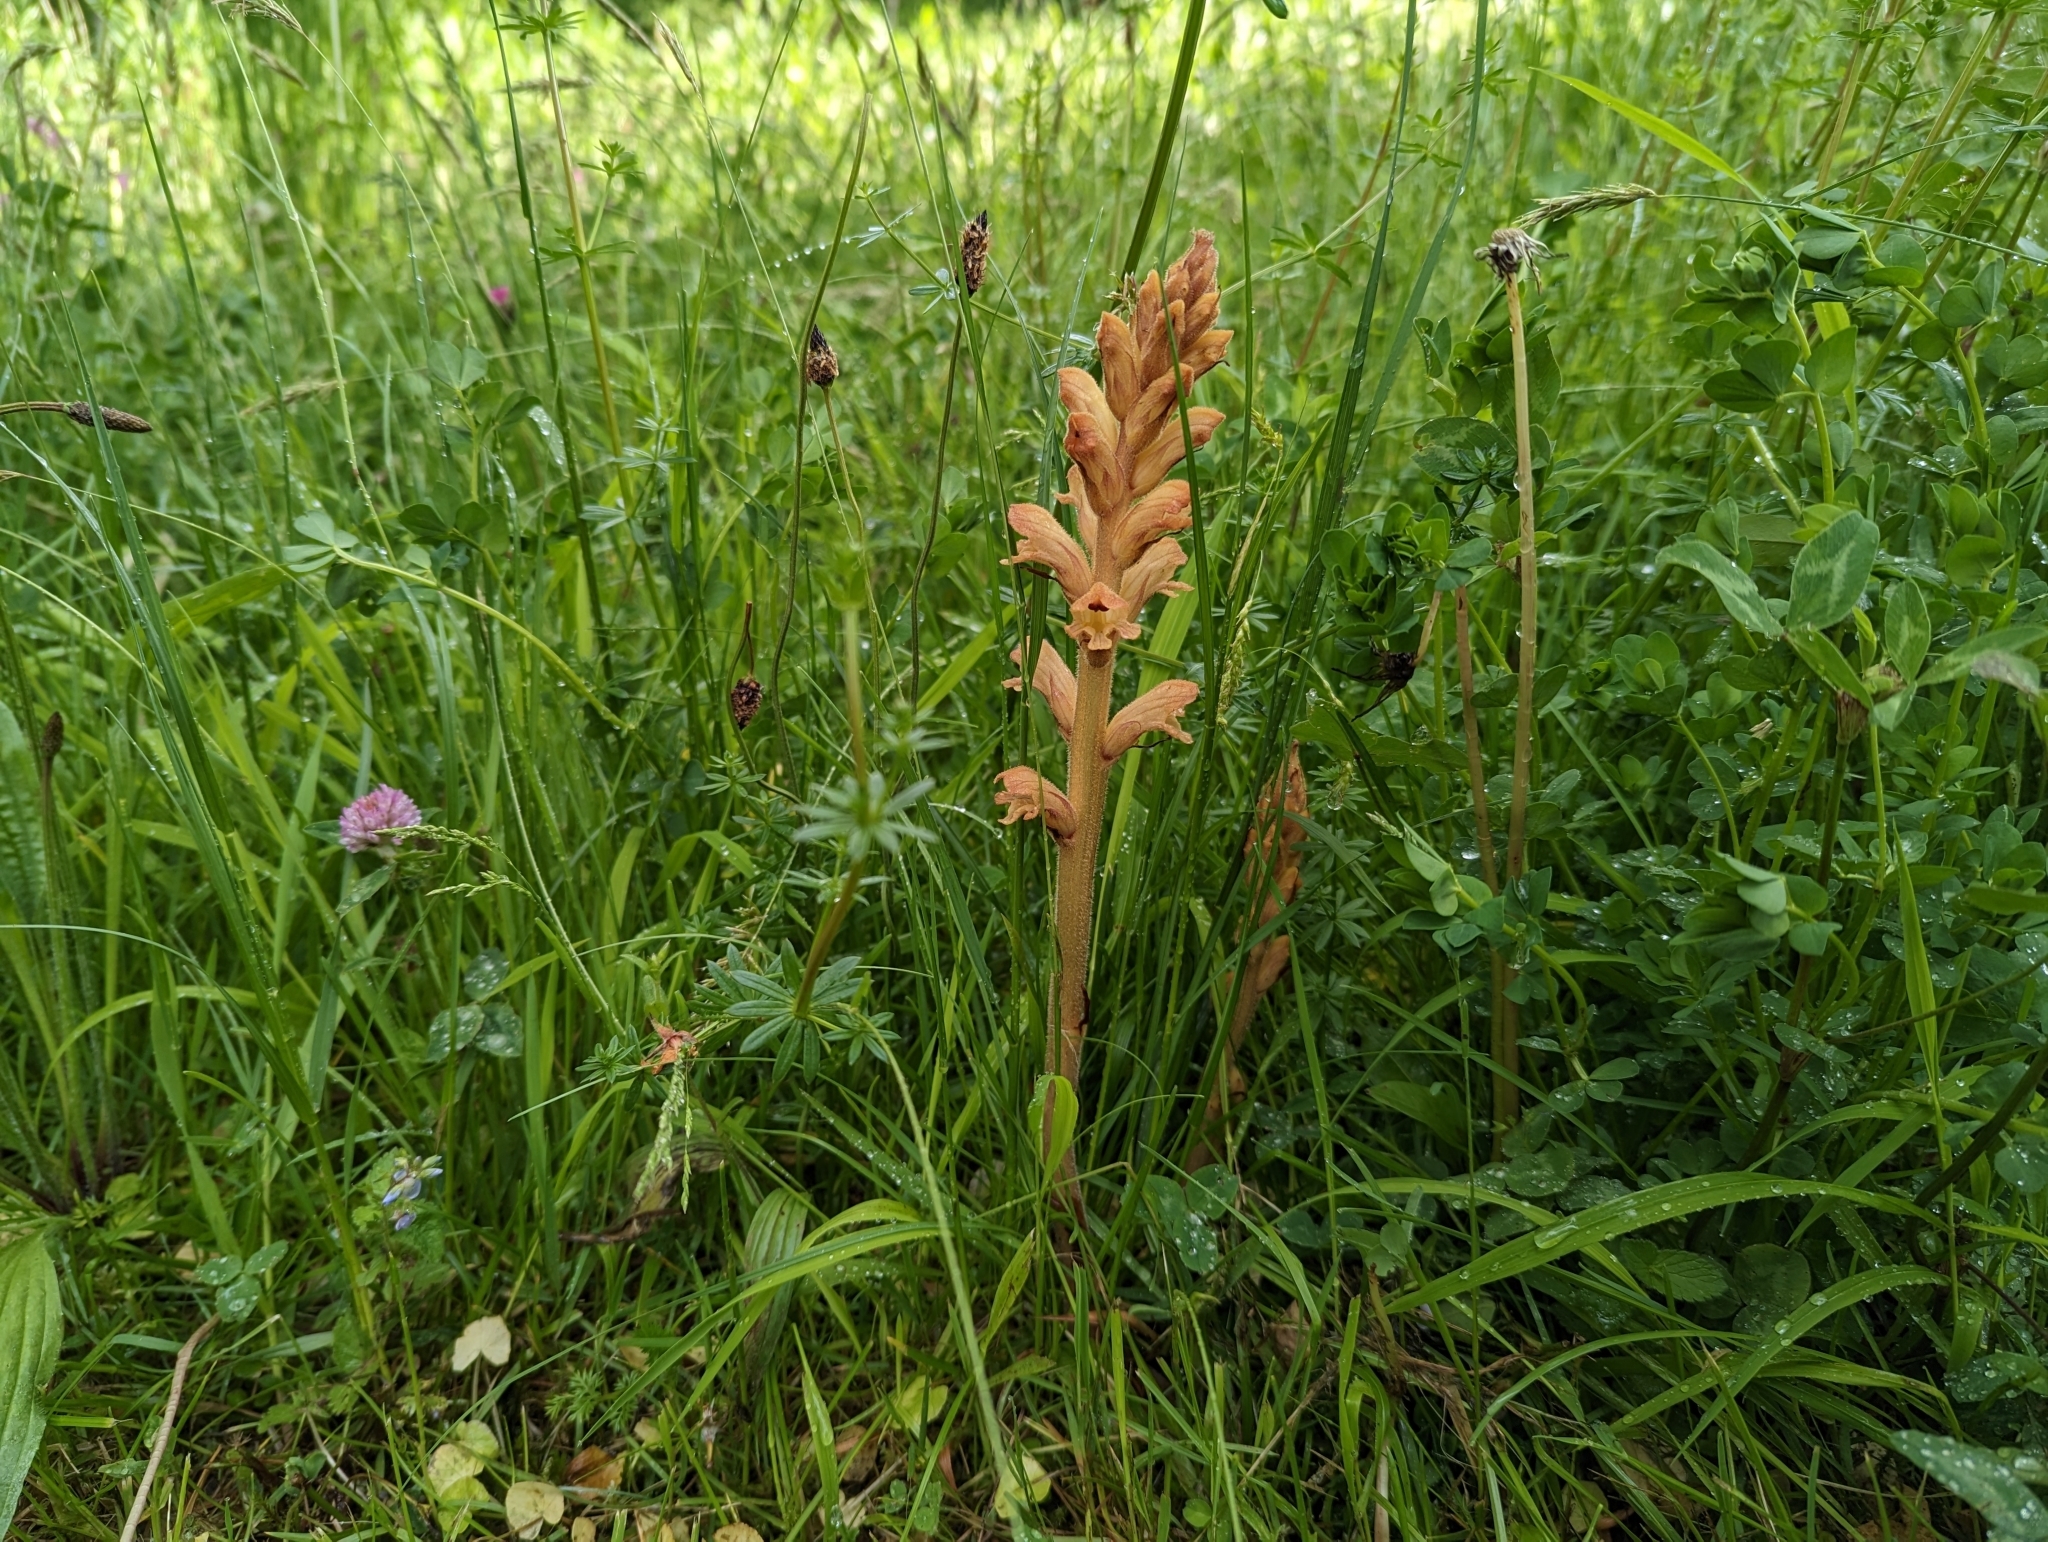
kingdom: Plantae
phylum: Tracheophyta
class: Magnoliopsida
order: Lamiales
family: Orobanchaceae
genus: Orobanche
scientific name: Orobanche caryophyllacea
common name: Bedstraw broomrape
